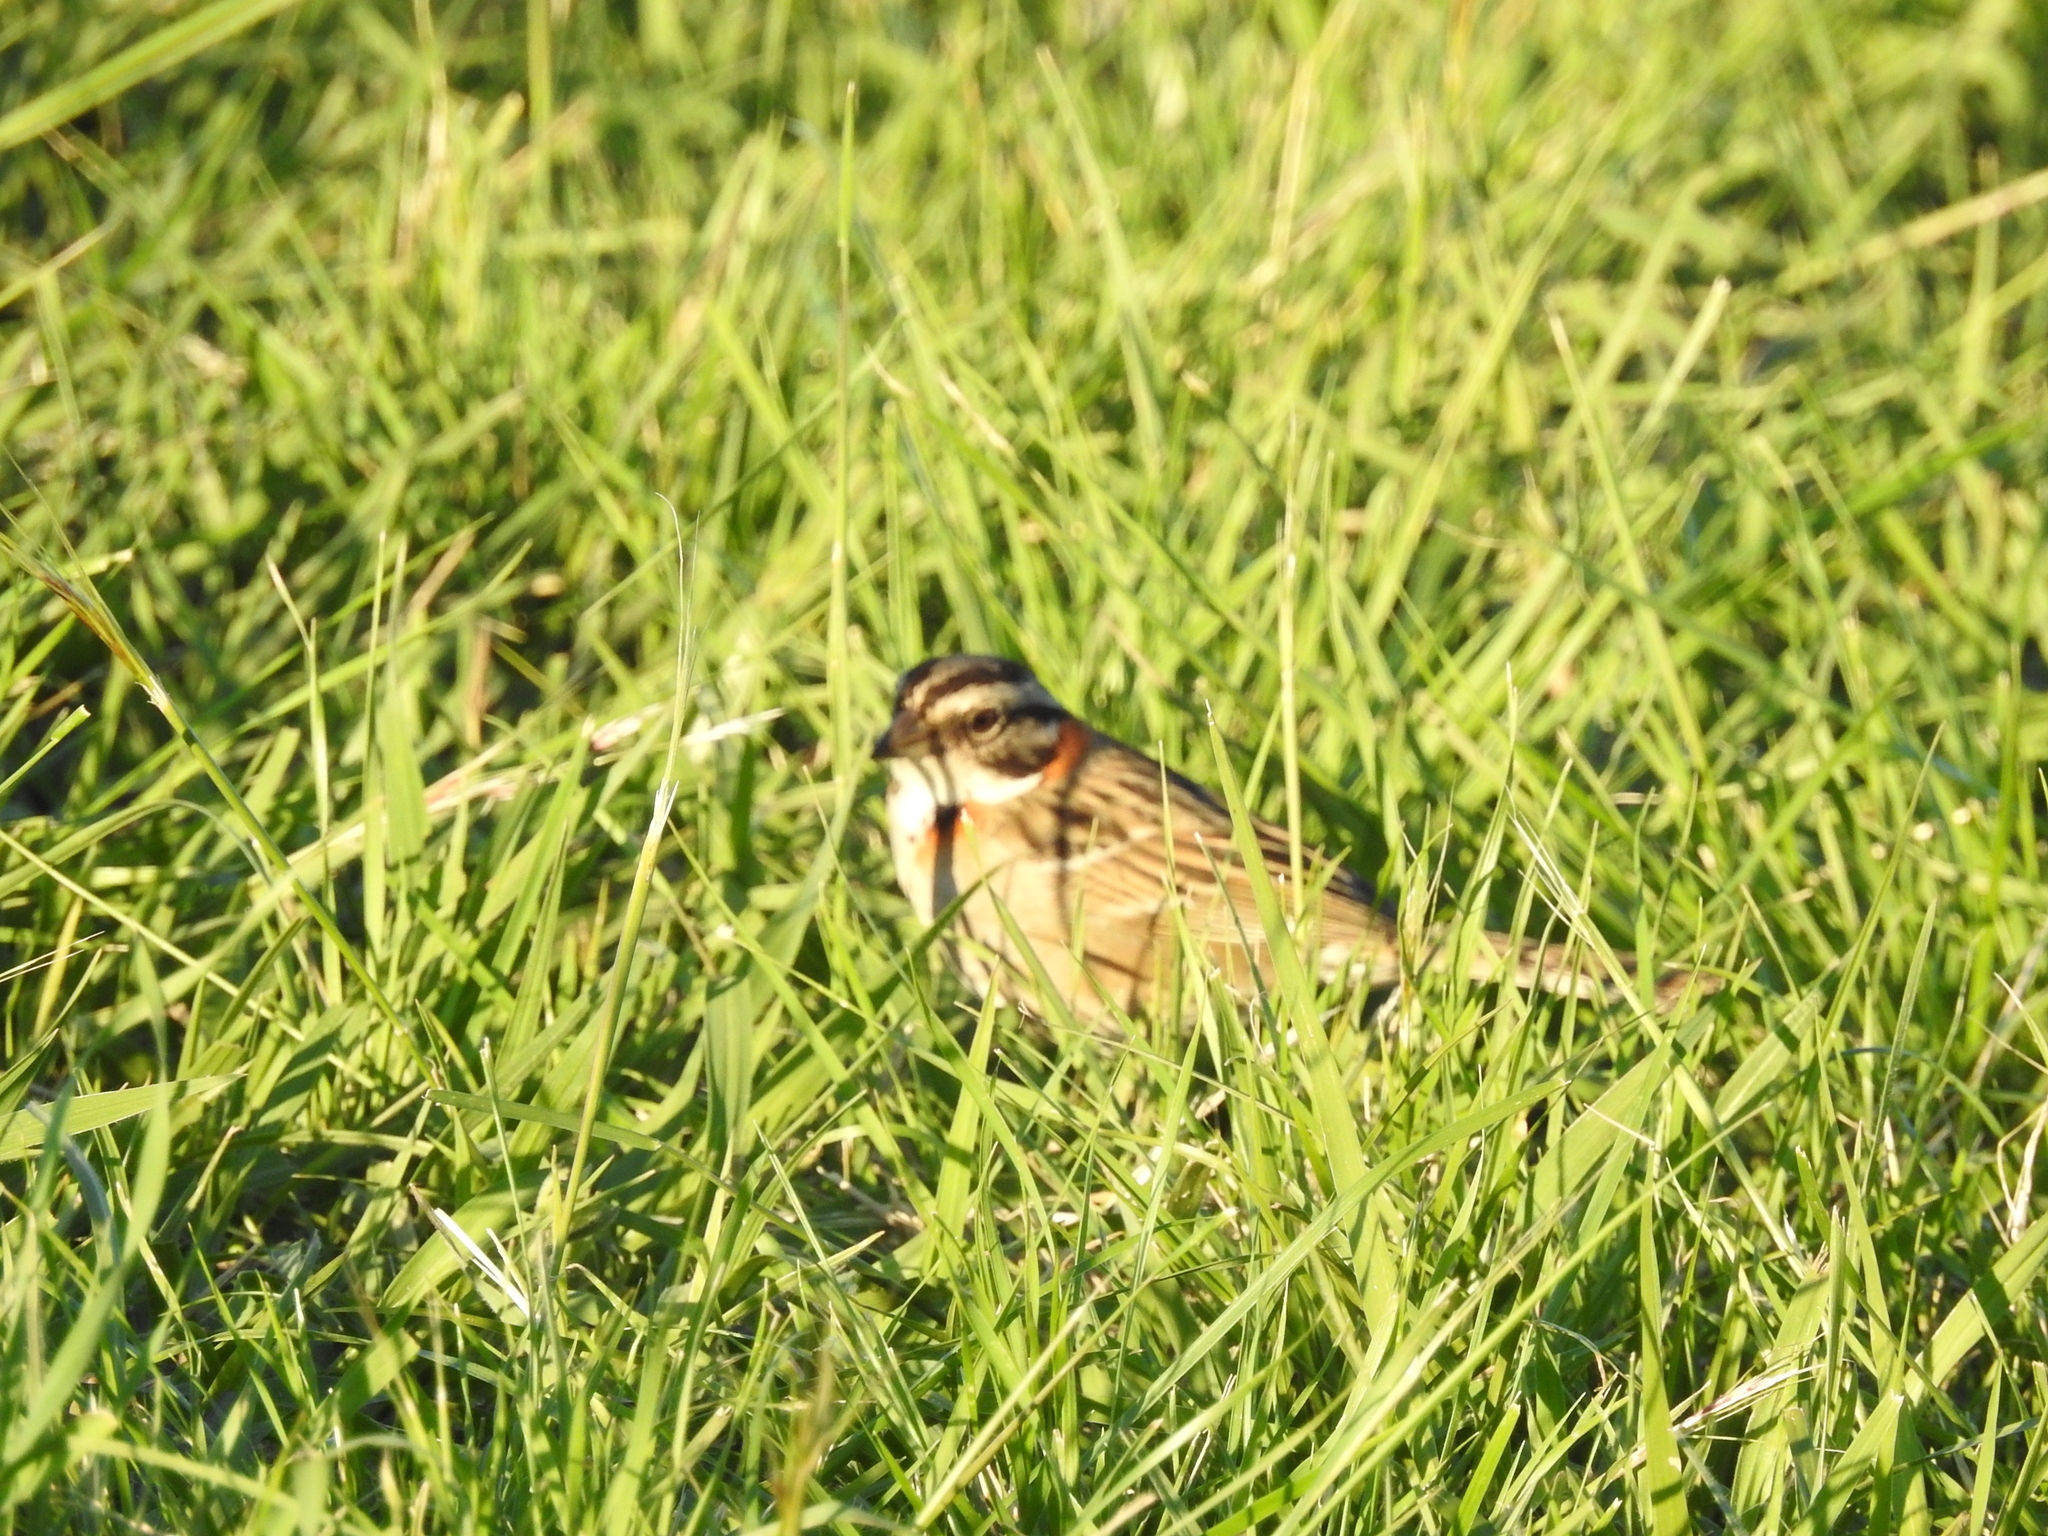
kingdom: Animalia
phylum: Chordata
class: Aves
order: Passeriformes
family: Passerellidae
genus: Zonotrichia
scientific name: Zonotrichia capensis
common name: Rufous-collared sparrow
